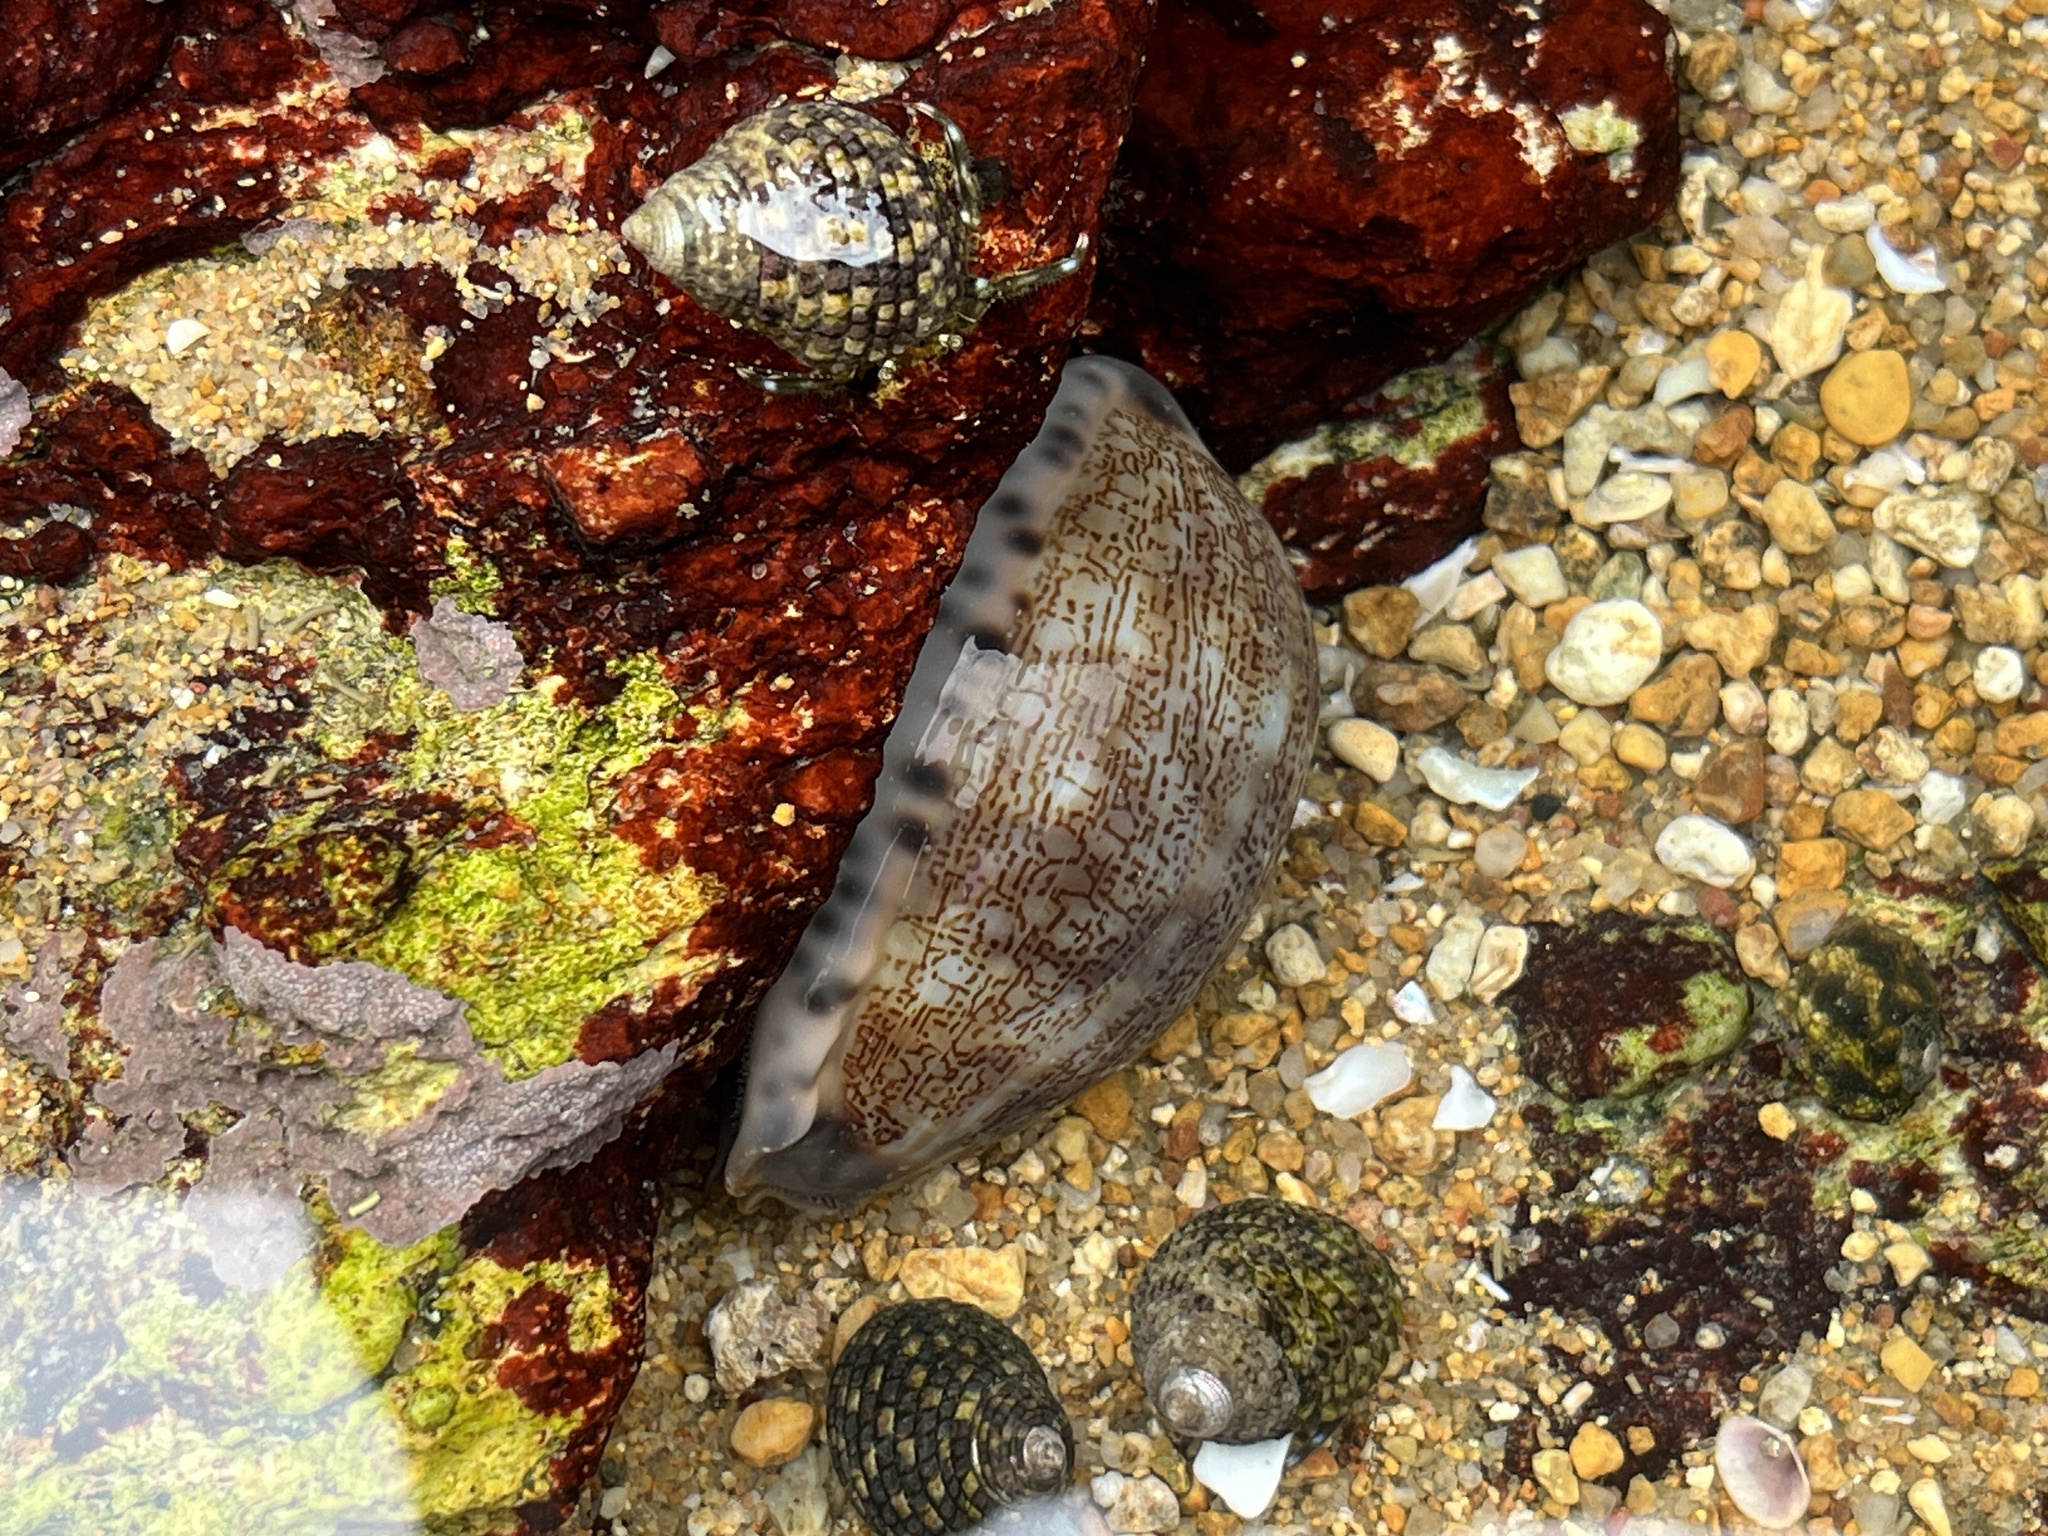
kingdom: Animalia
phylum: Mollusca
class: Gastropoda
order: Littorinimorpha
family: Cypraeidae
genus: Mauritia
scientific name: Mauritia arabica
